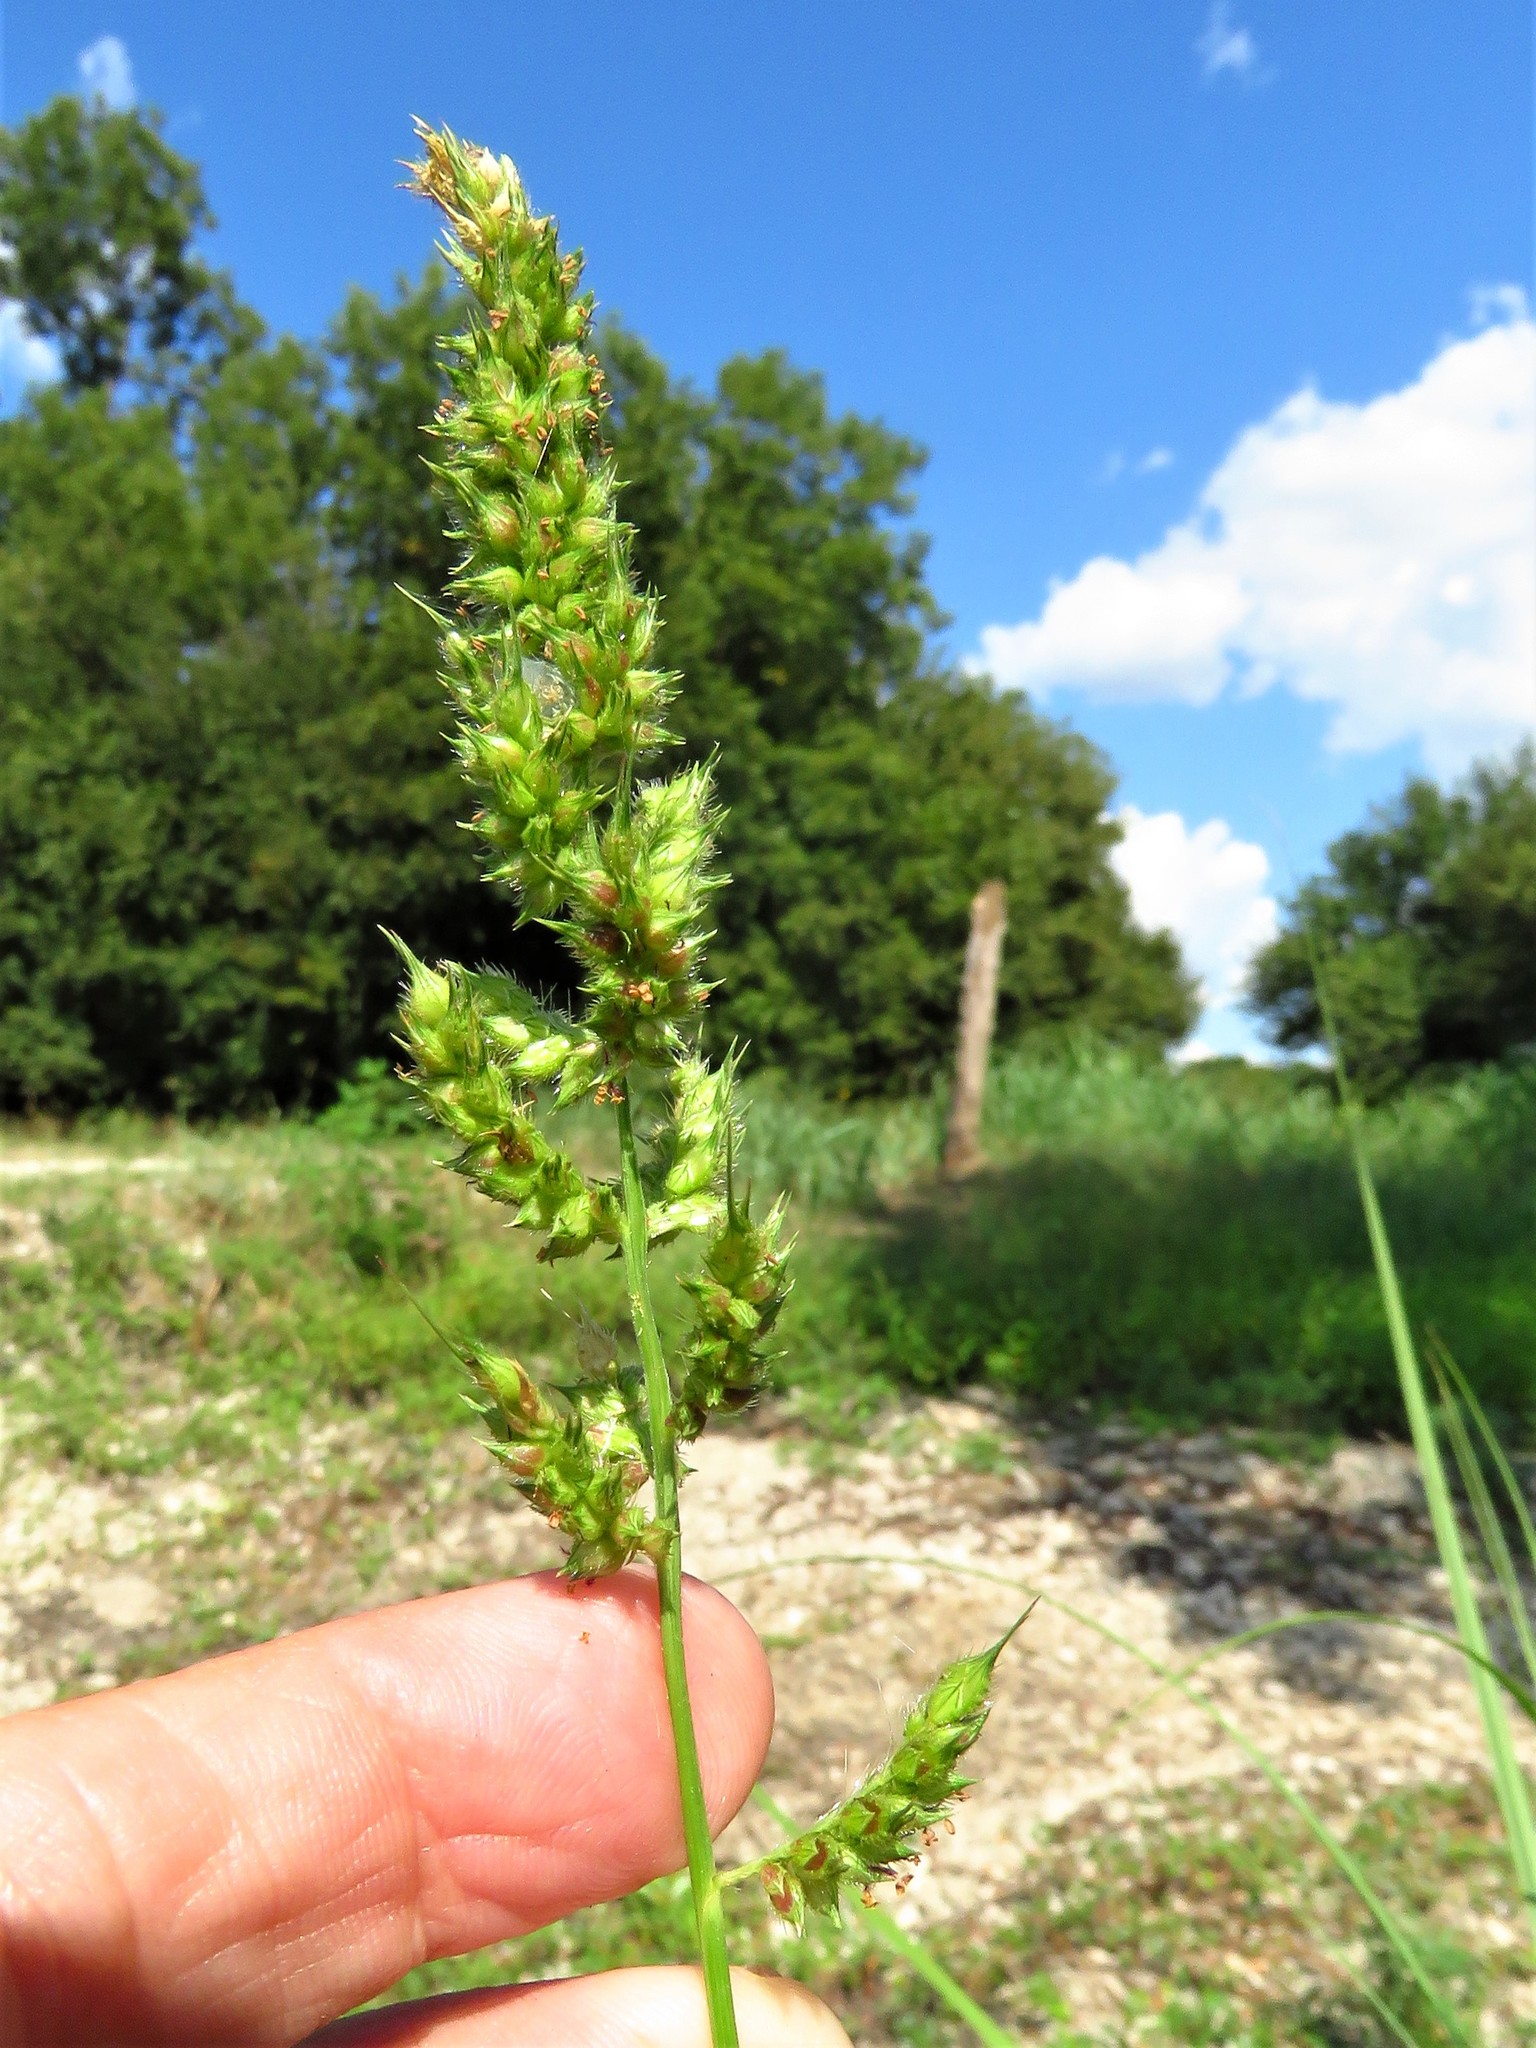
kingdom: Plantae
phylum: Tracheophyta
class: Liliopsida
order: Poales
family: Poaceae
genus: Echinochloa
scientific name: Echinochloa crus-galli
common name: Cockspur
